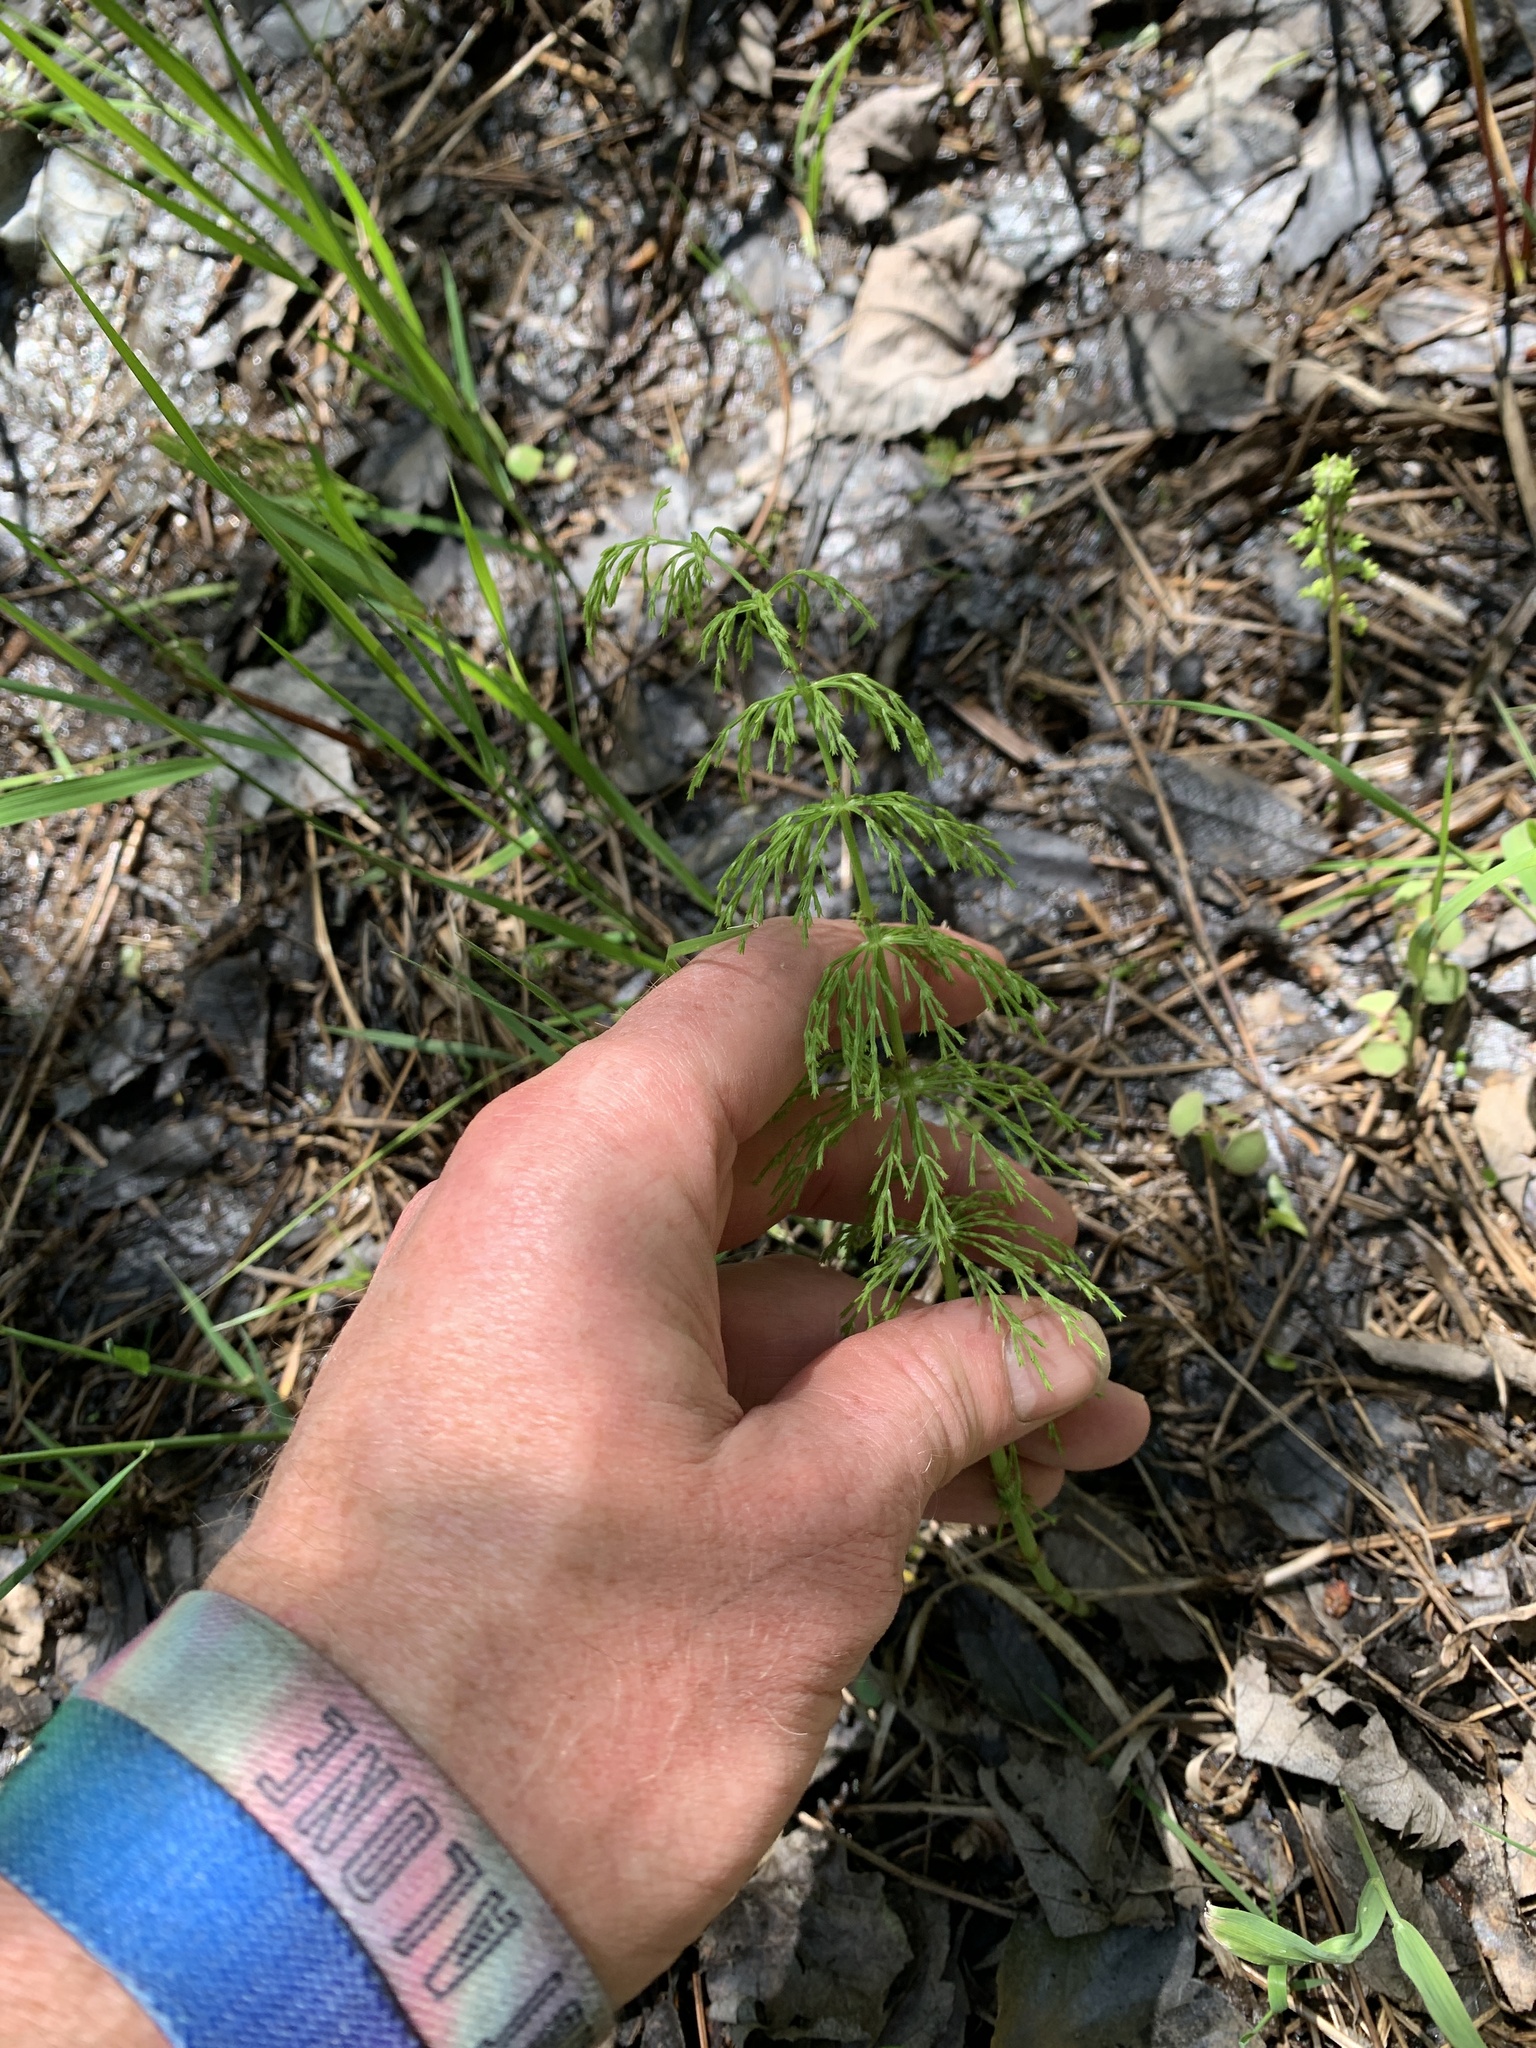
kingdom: Plantae
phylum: Tracheophyta
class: Polypodiopsida
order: Equisetales
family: Equisetaceae
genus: Equisetum
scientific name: Equisetum sylvaticum
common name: Wood horsetail
